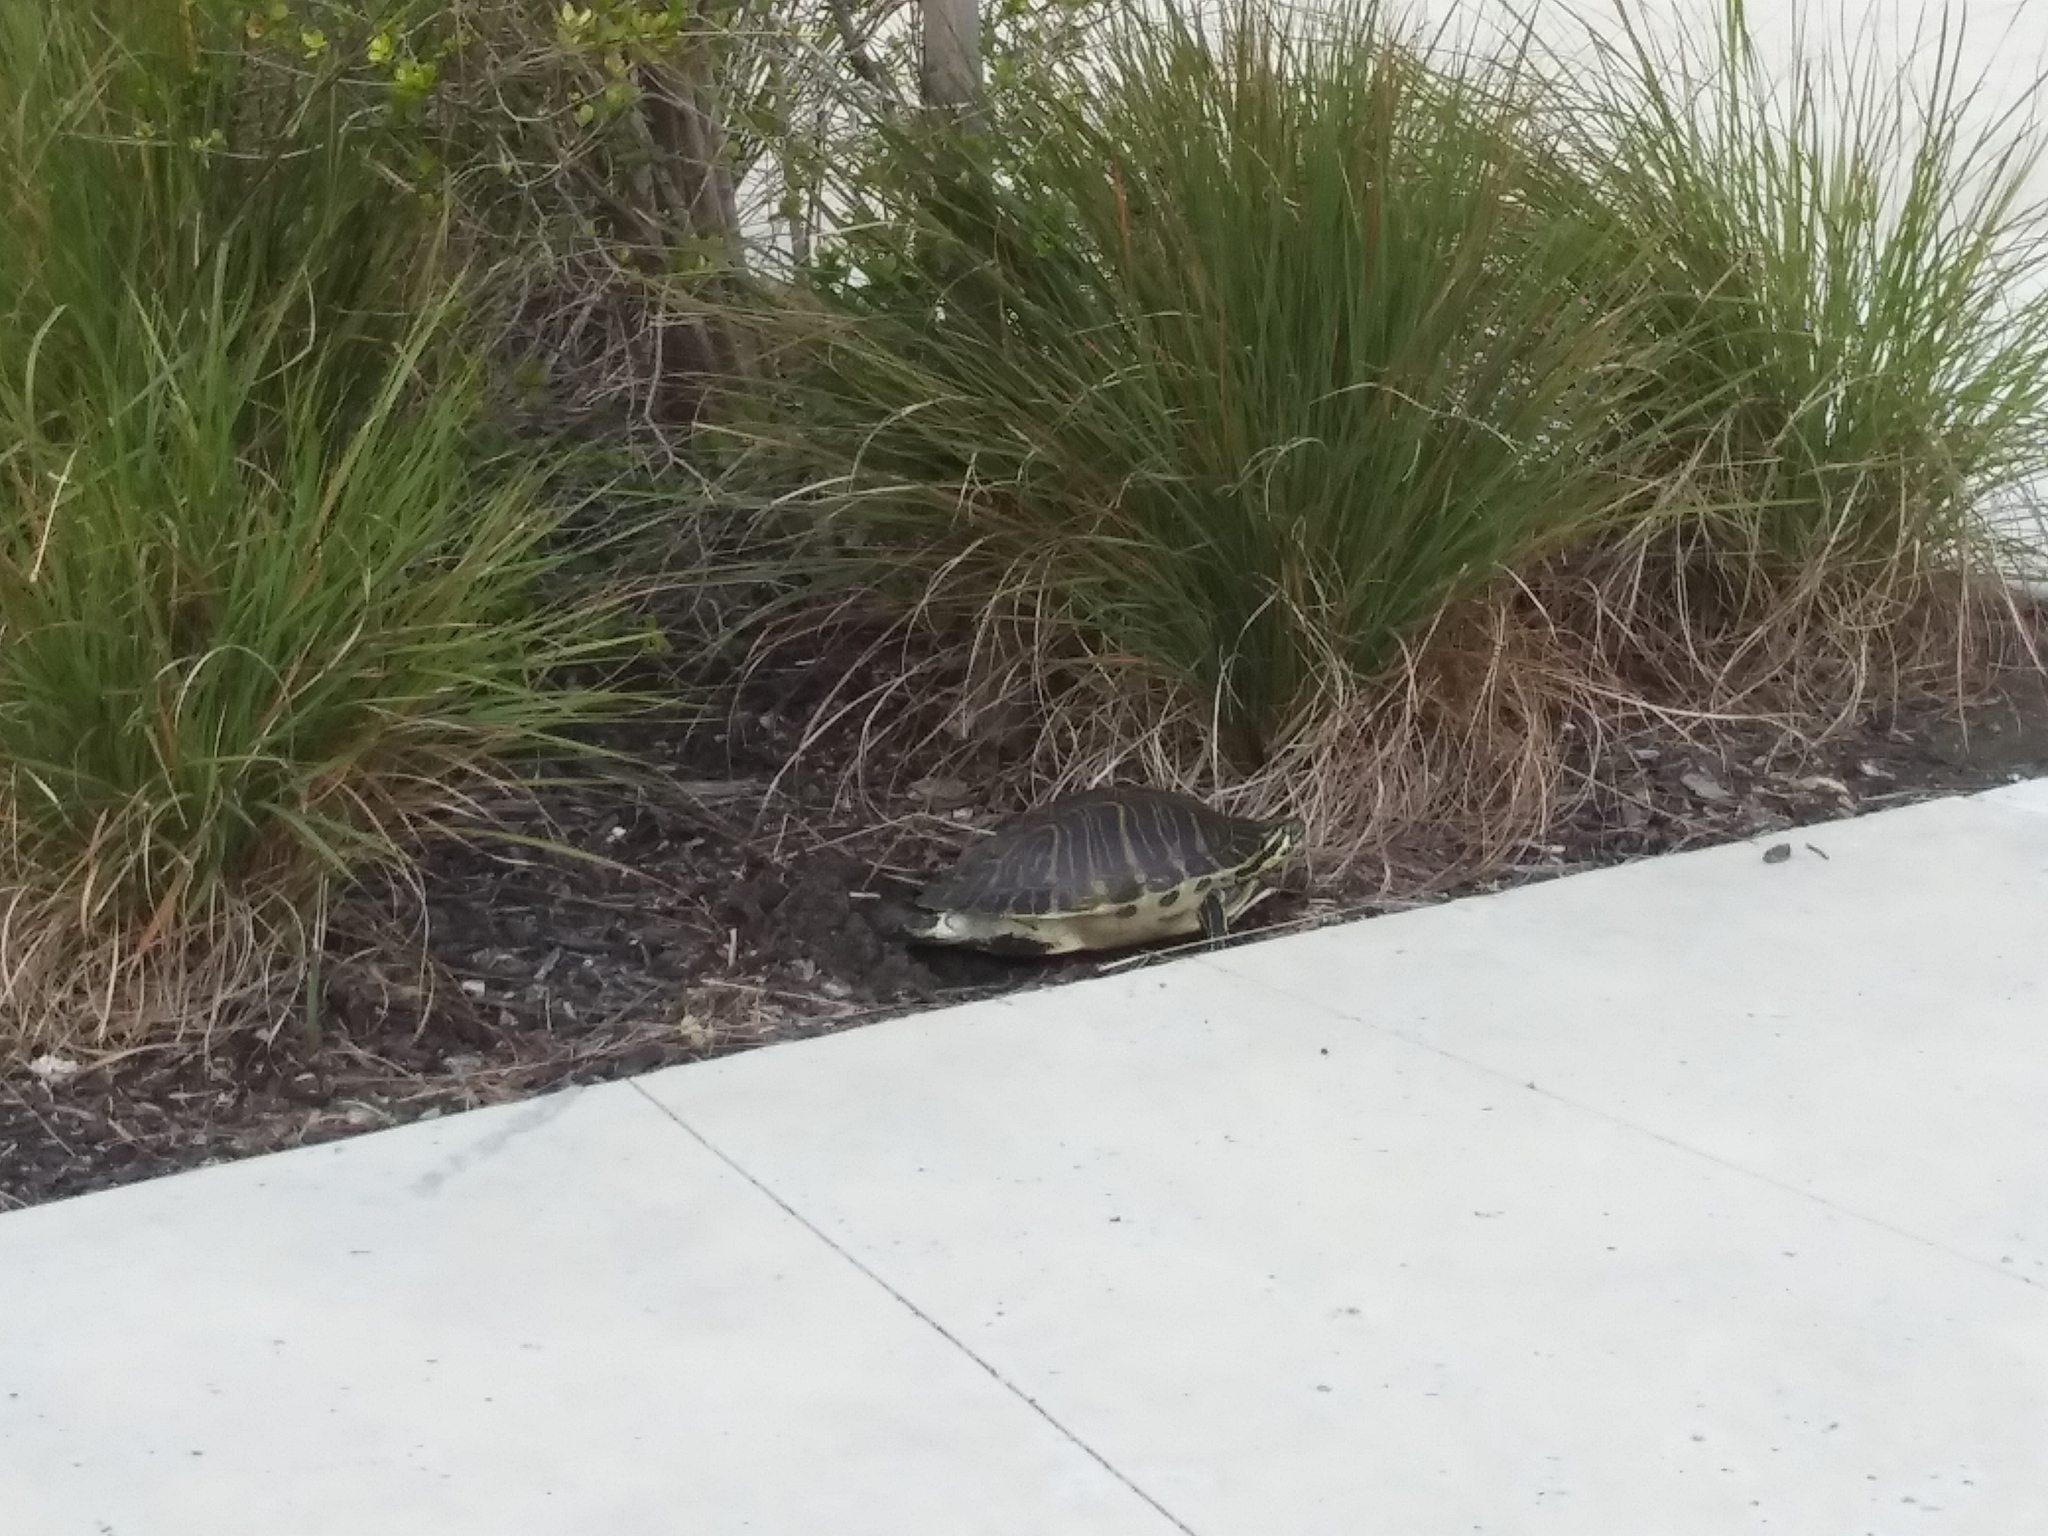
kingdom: Animalia
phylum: Chordata
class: Testudines
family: Emydidae
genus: Pseudemys
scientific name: Pseudemys peninsularis
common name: Peninsula cooter
